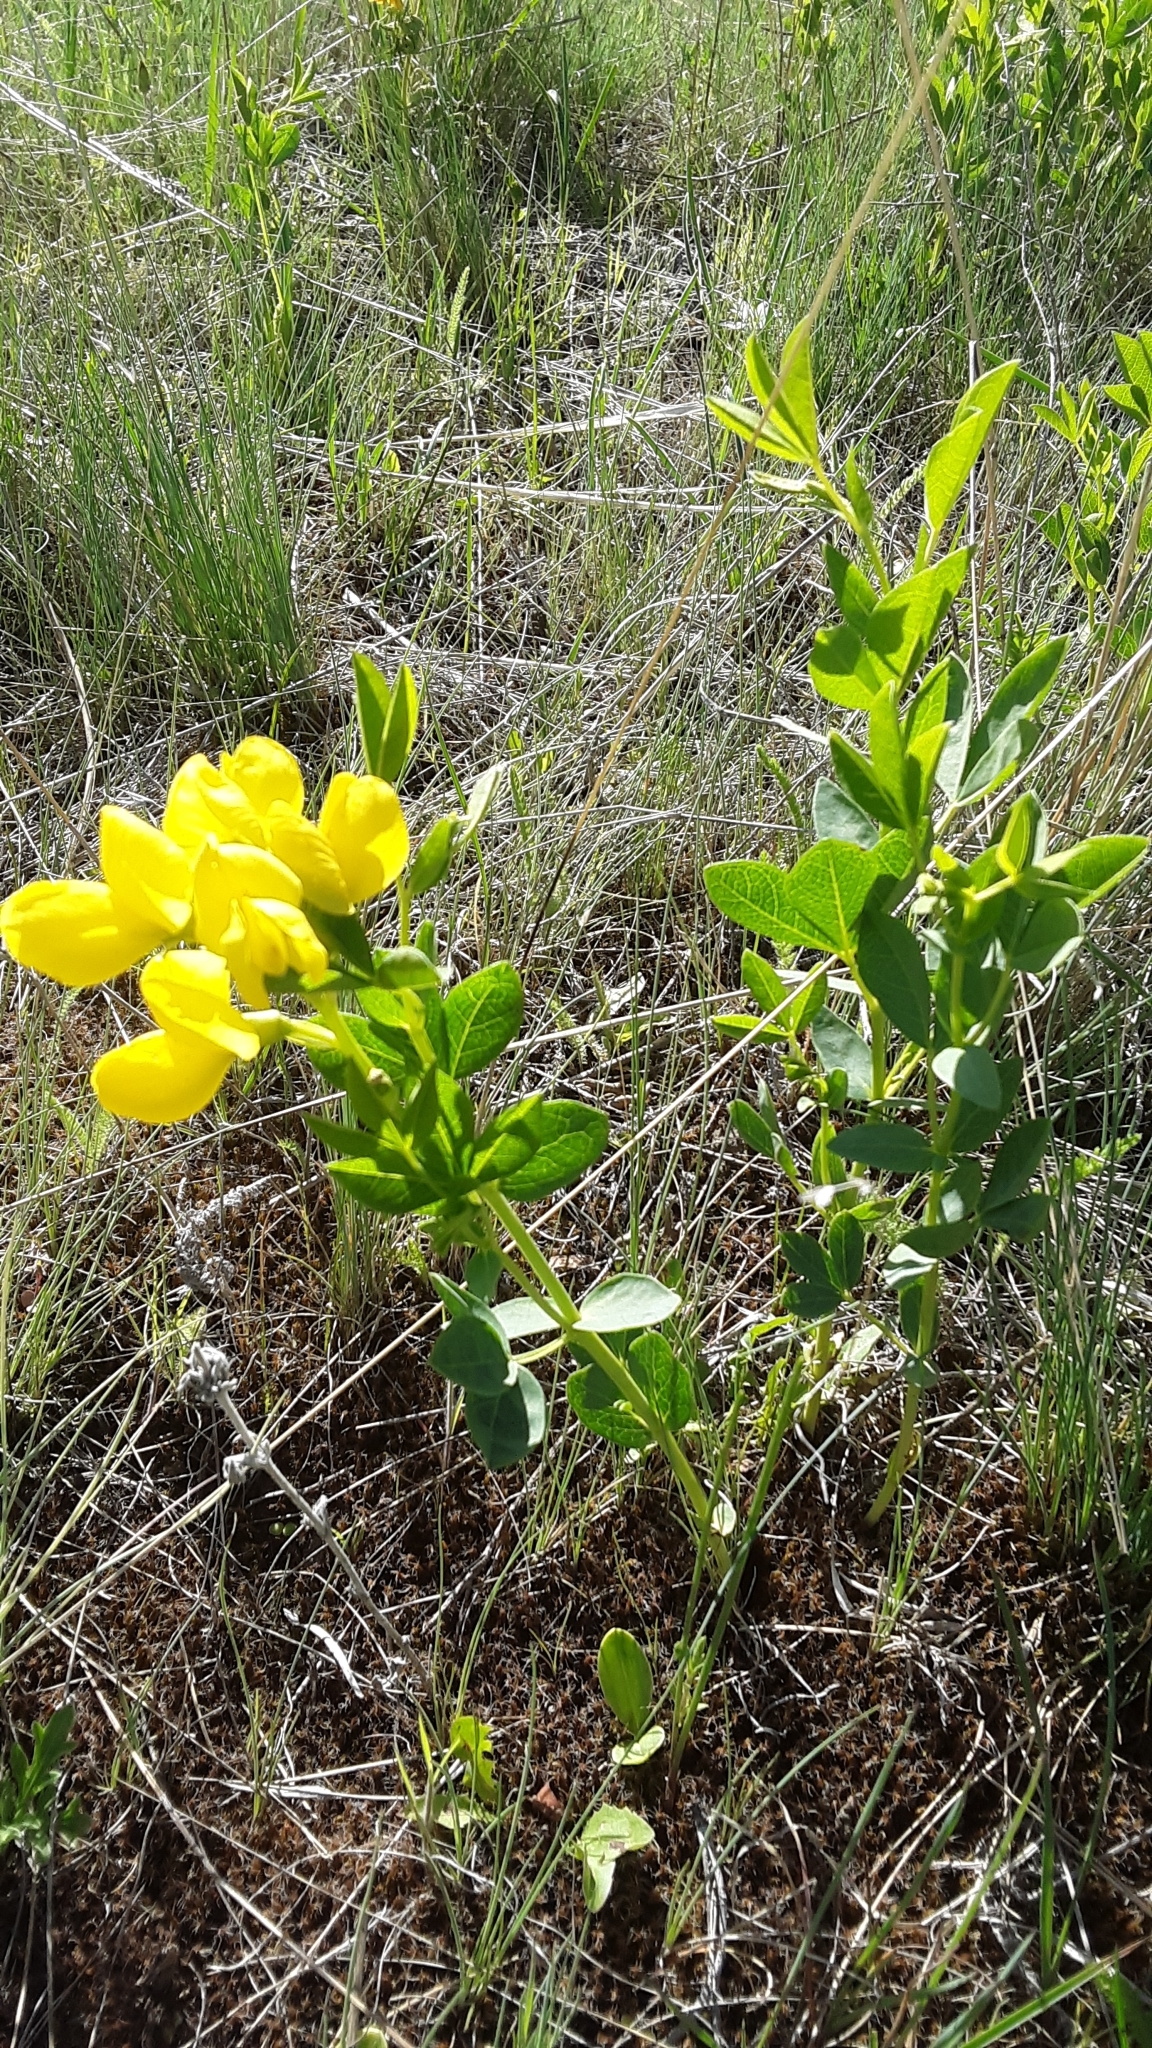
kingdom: Plantae
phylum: Tracheophyta
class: Magnoliopsida
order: Fabales
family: Fabaceae
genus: Thermopsis
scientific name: Thermopsis rhombifolia
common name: Circle-pod-pea
